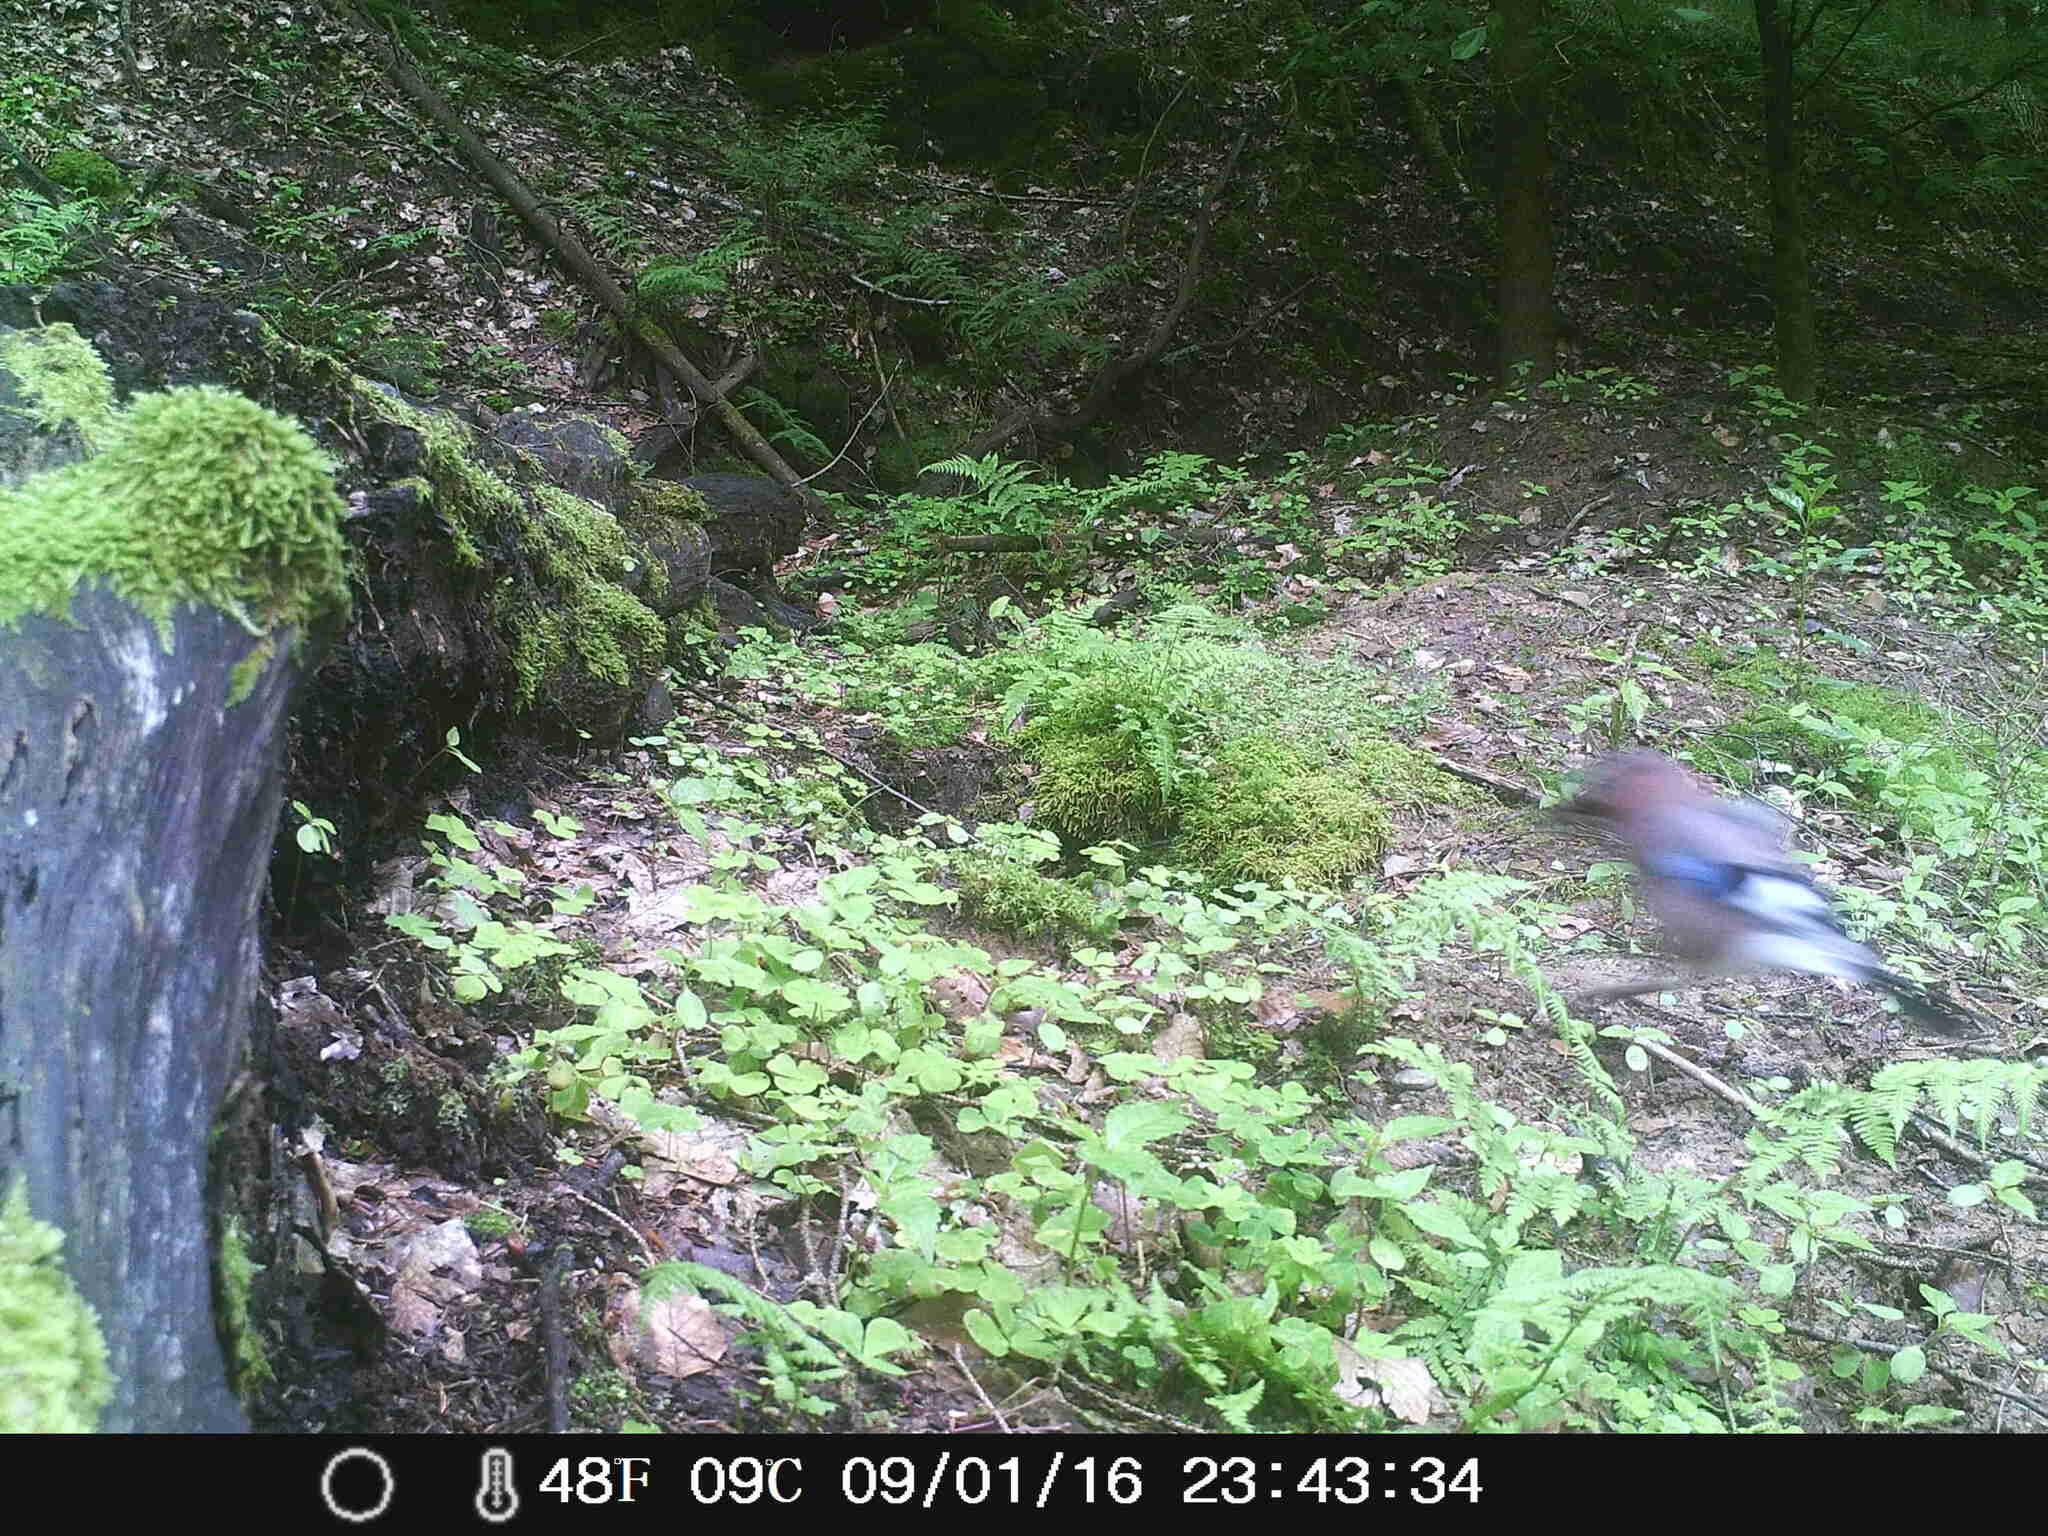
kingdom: Animalia
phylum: Chordata
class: Aves
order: Passeriformes
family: Corvidae
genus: Garrulus
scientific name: Garrulus glandarius
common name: Eurasian jay
